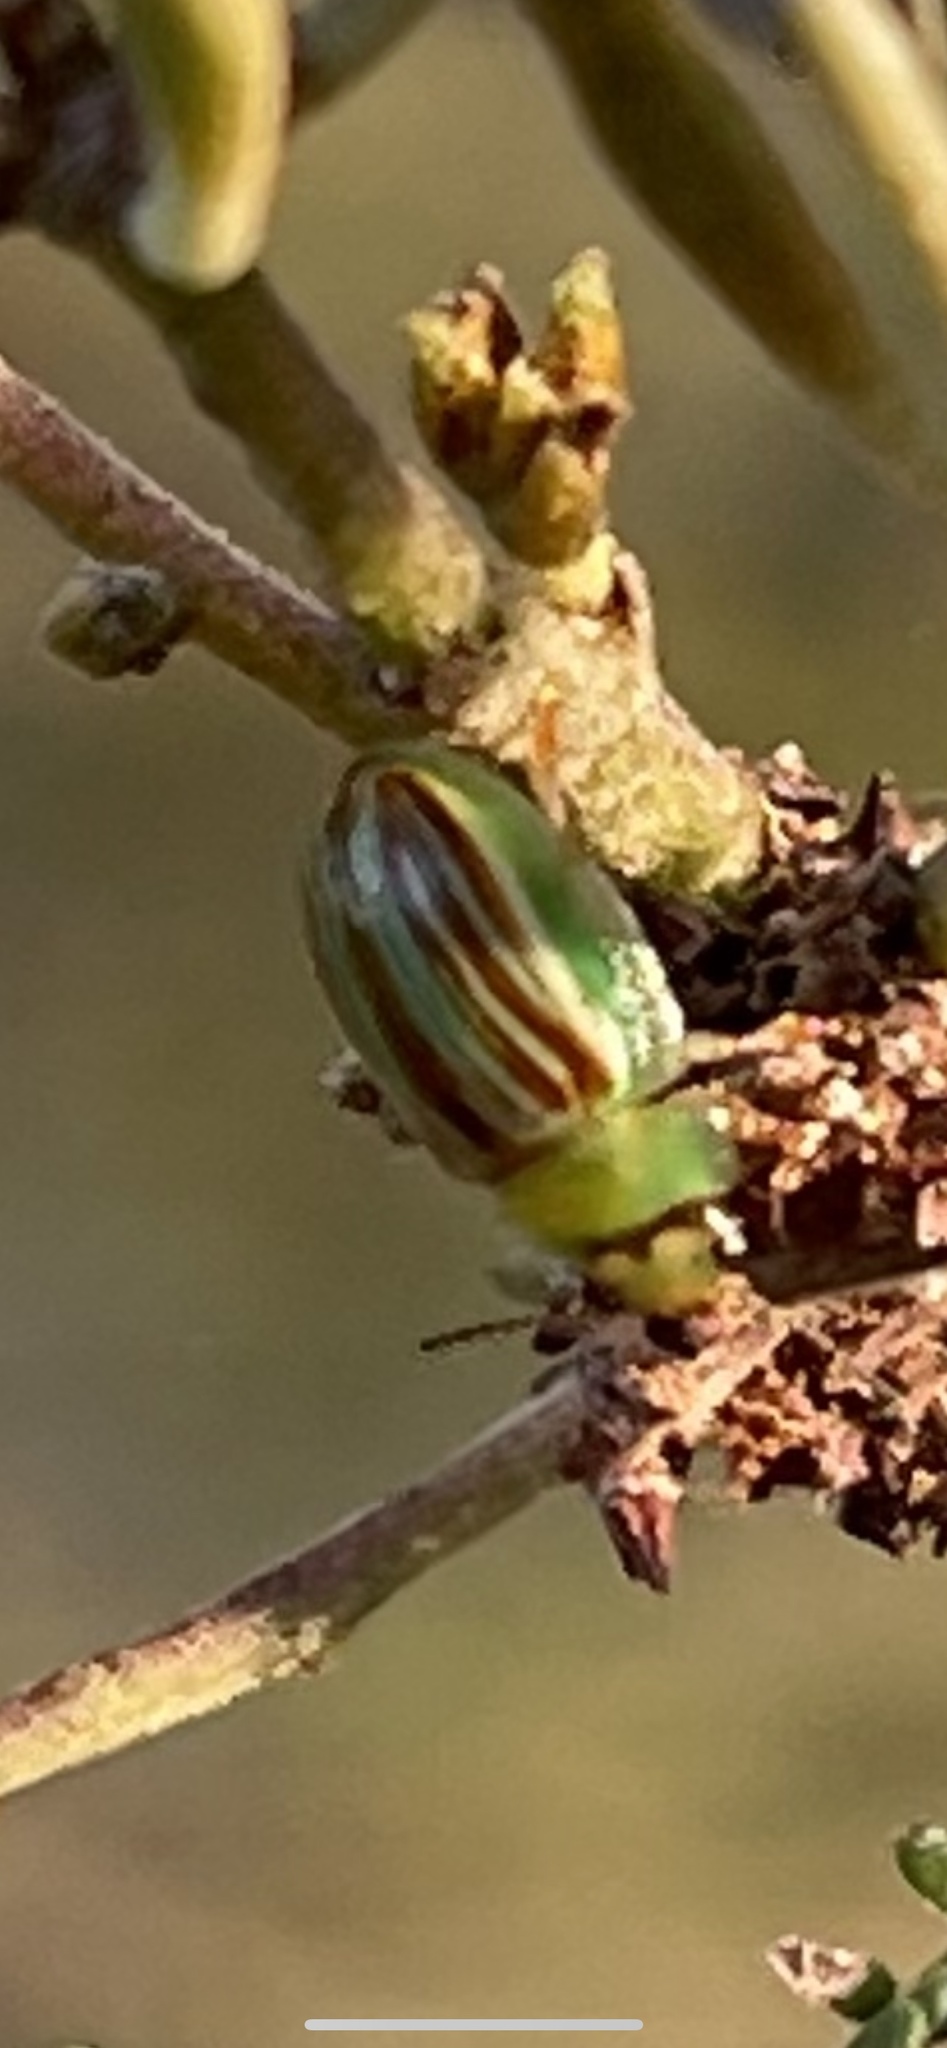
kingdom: Animalia
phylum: Arthropoda
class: Insecta
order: Coleoptera
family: Chrysomelidae
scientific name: Chrysomelidae
